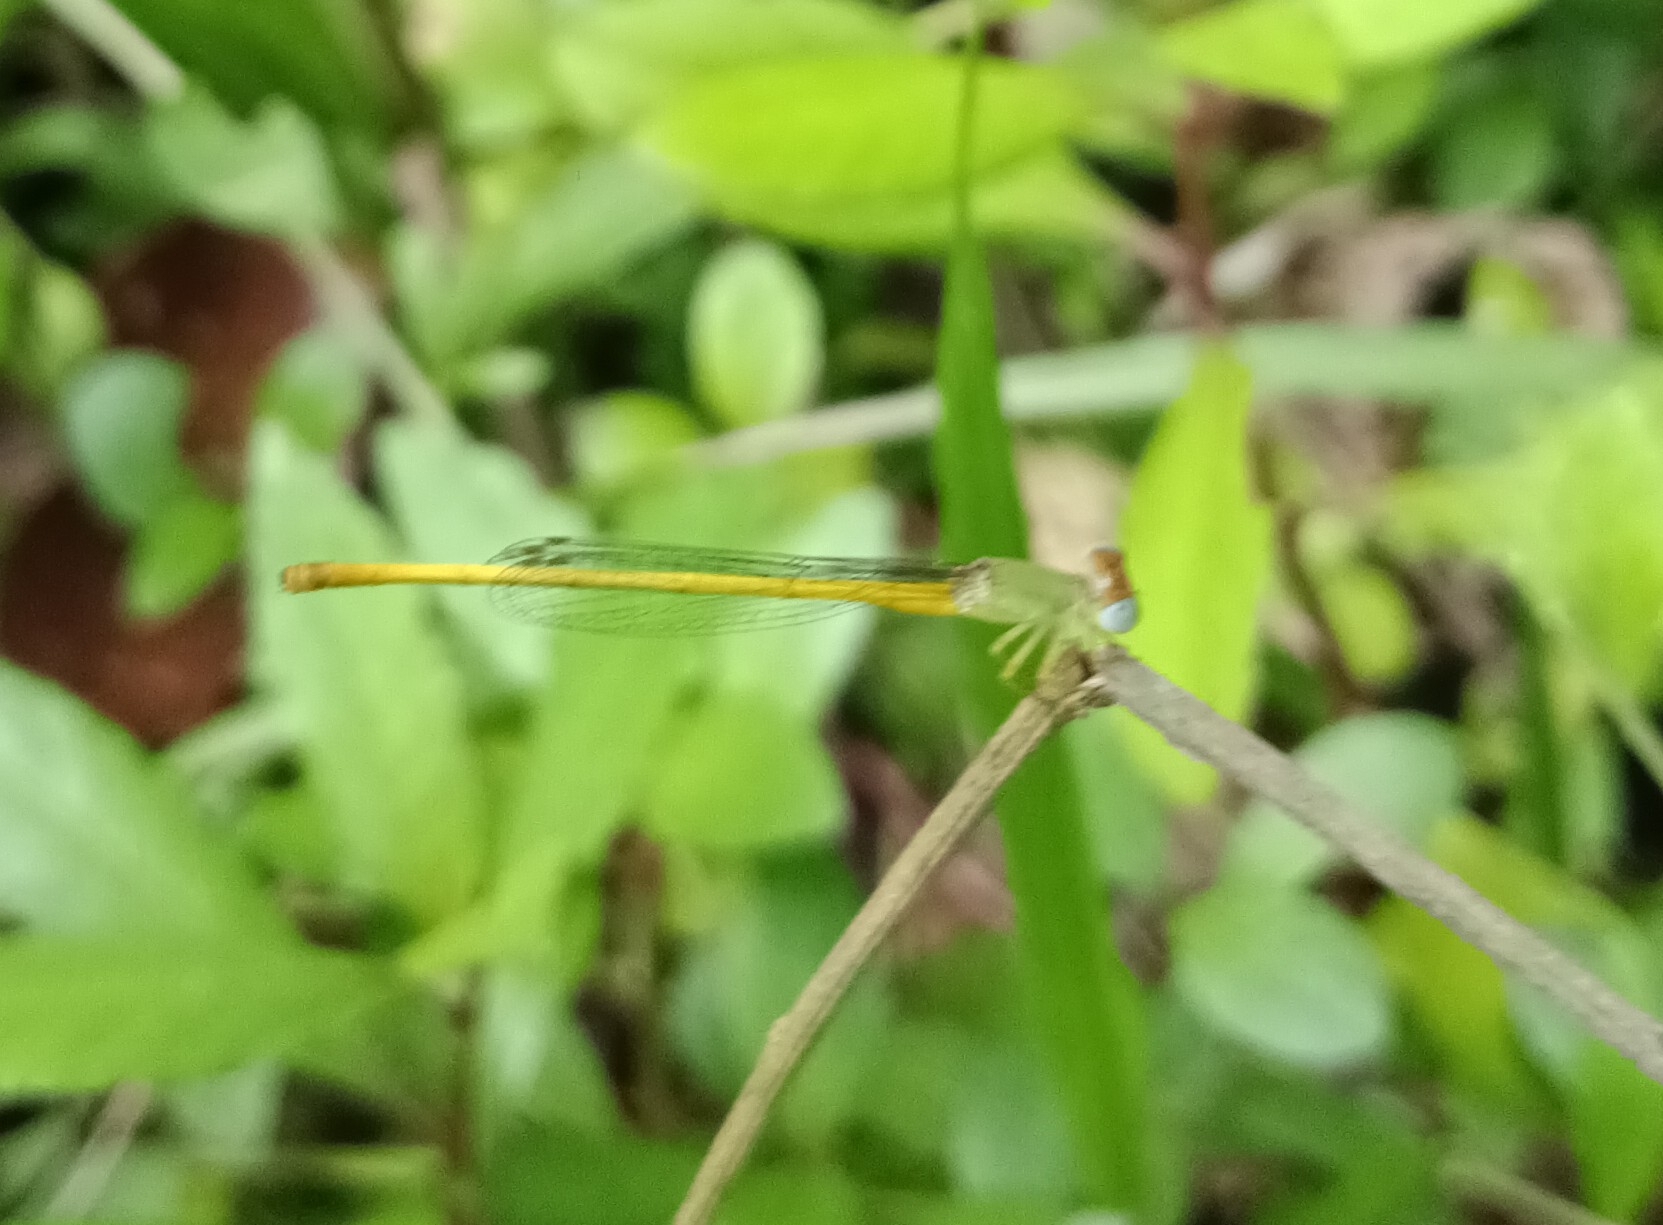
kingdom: Animalia
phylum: Arthropoda
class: Insecta
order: Odonata
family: Coenagrionidae
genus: Ceriagrion
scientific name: Ceriagrion coromandelianum
